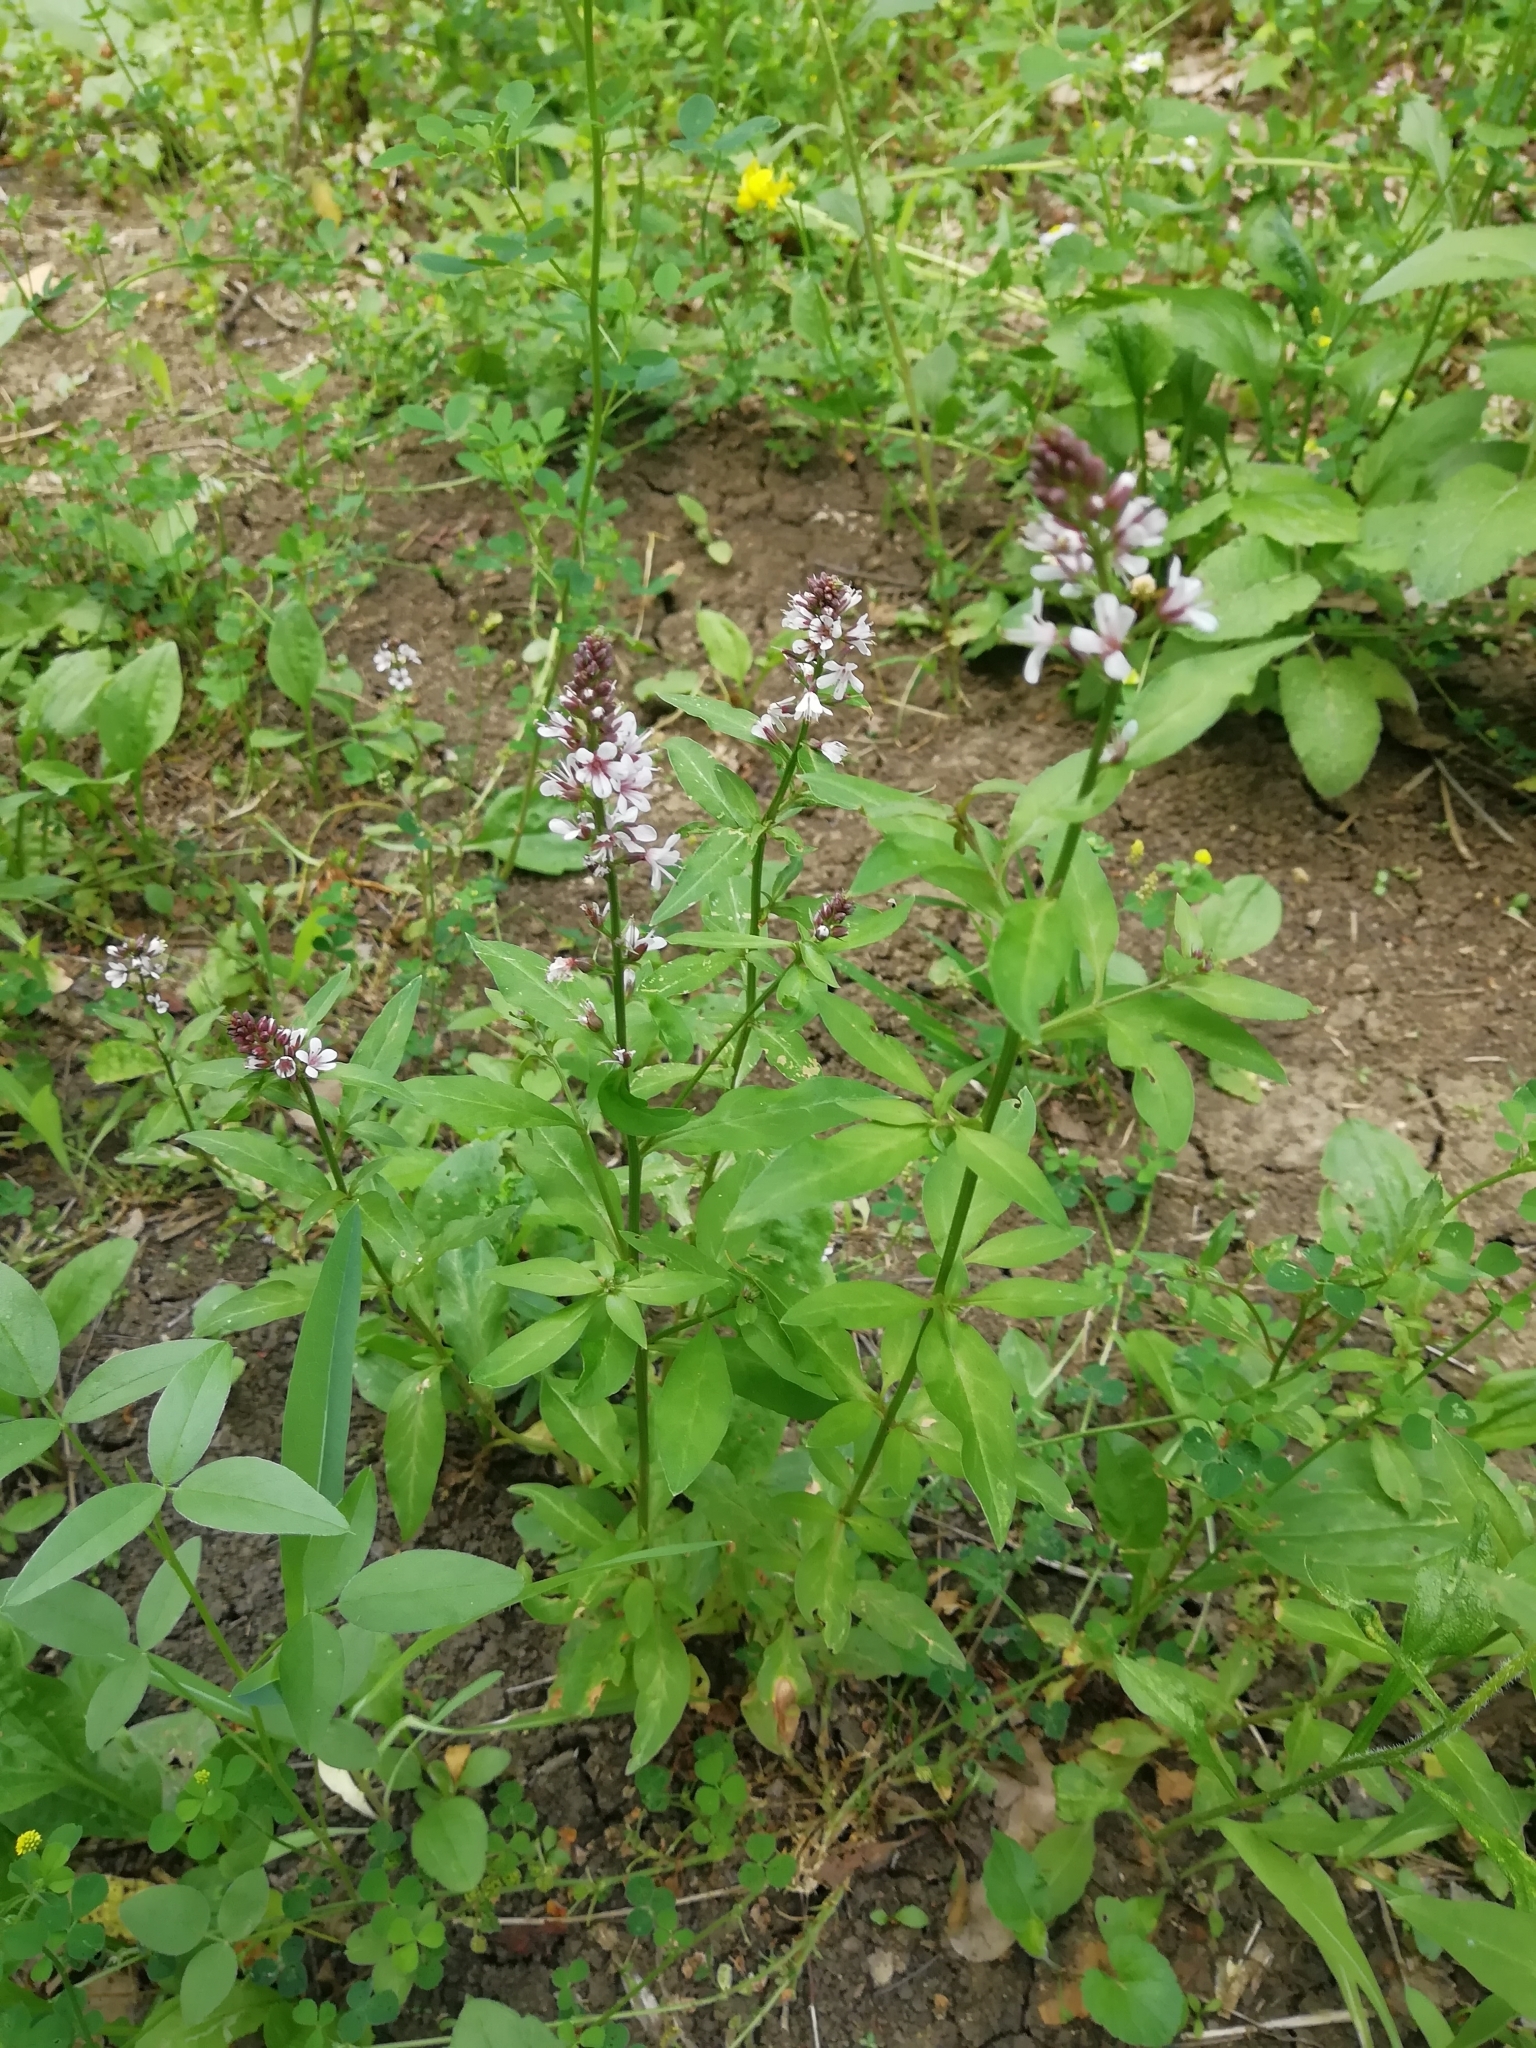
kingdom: Plantae
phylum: Tracheophyta
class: Magnoliopsida
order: Ericales
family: Primulaceae
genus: Lysimachia
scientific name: Lysimachia dubia
